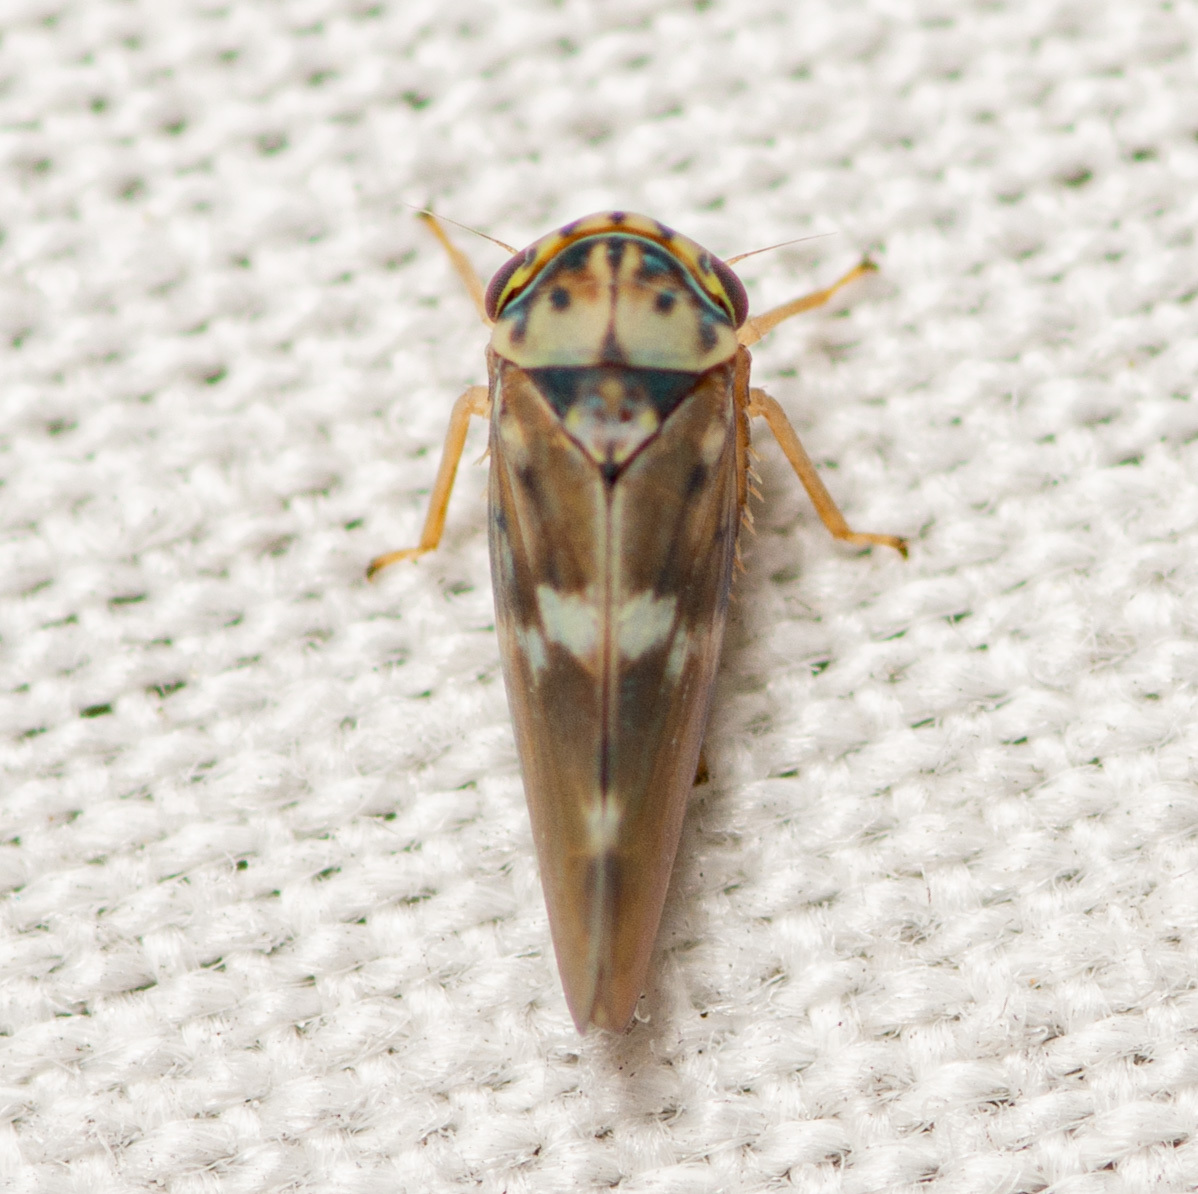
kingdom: Animalia
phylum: Arthropoda
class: Insecta
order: Hemiptera
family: Cicadellidae
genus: Agalliopsis
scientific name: Agalliopsis cervina
